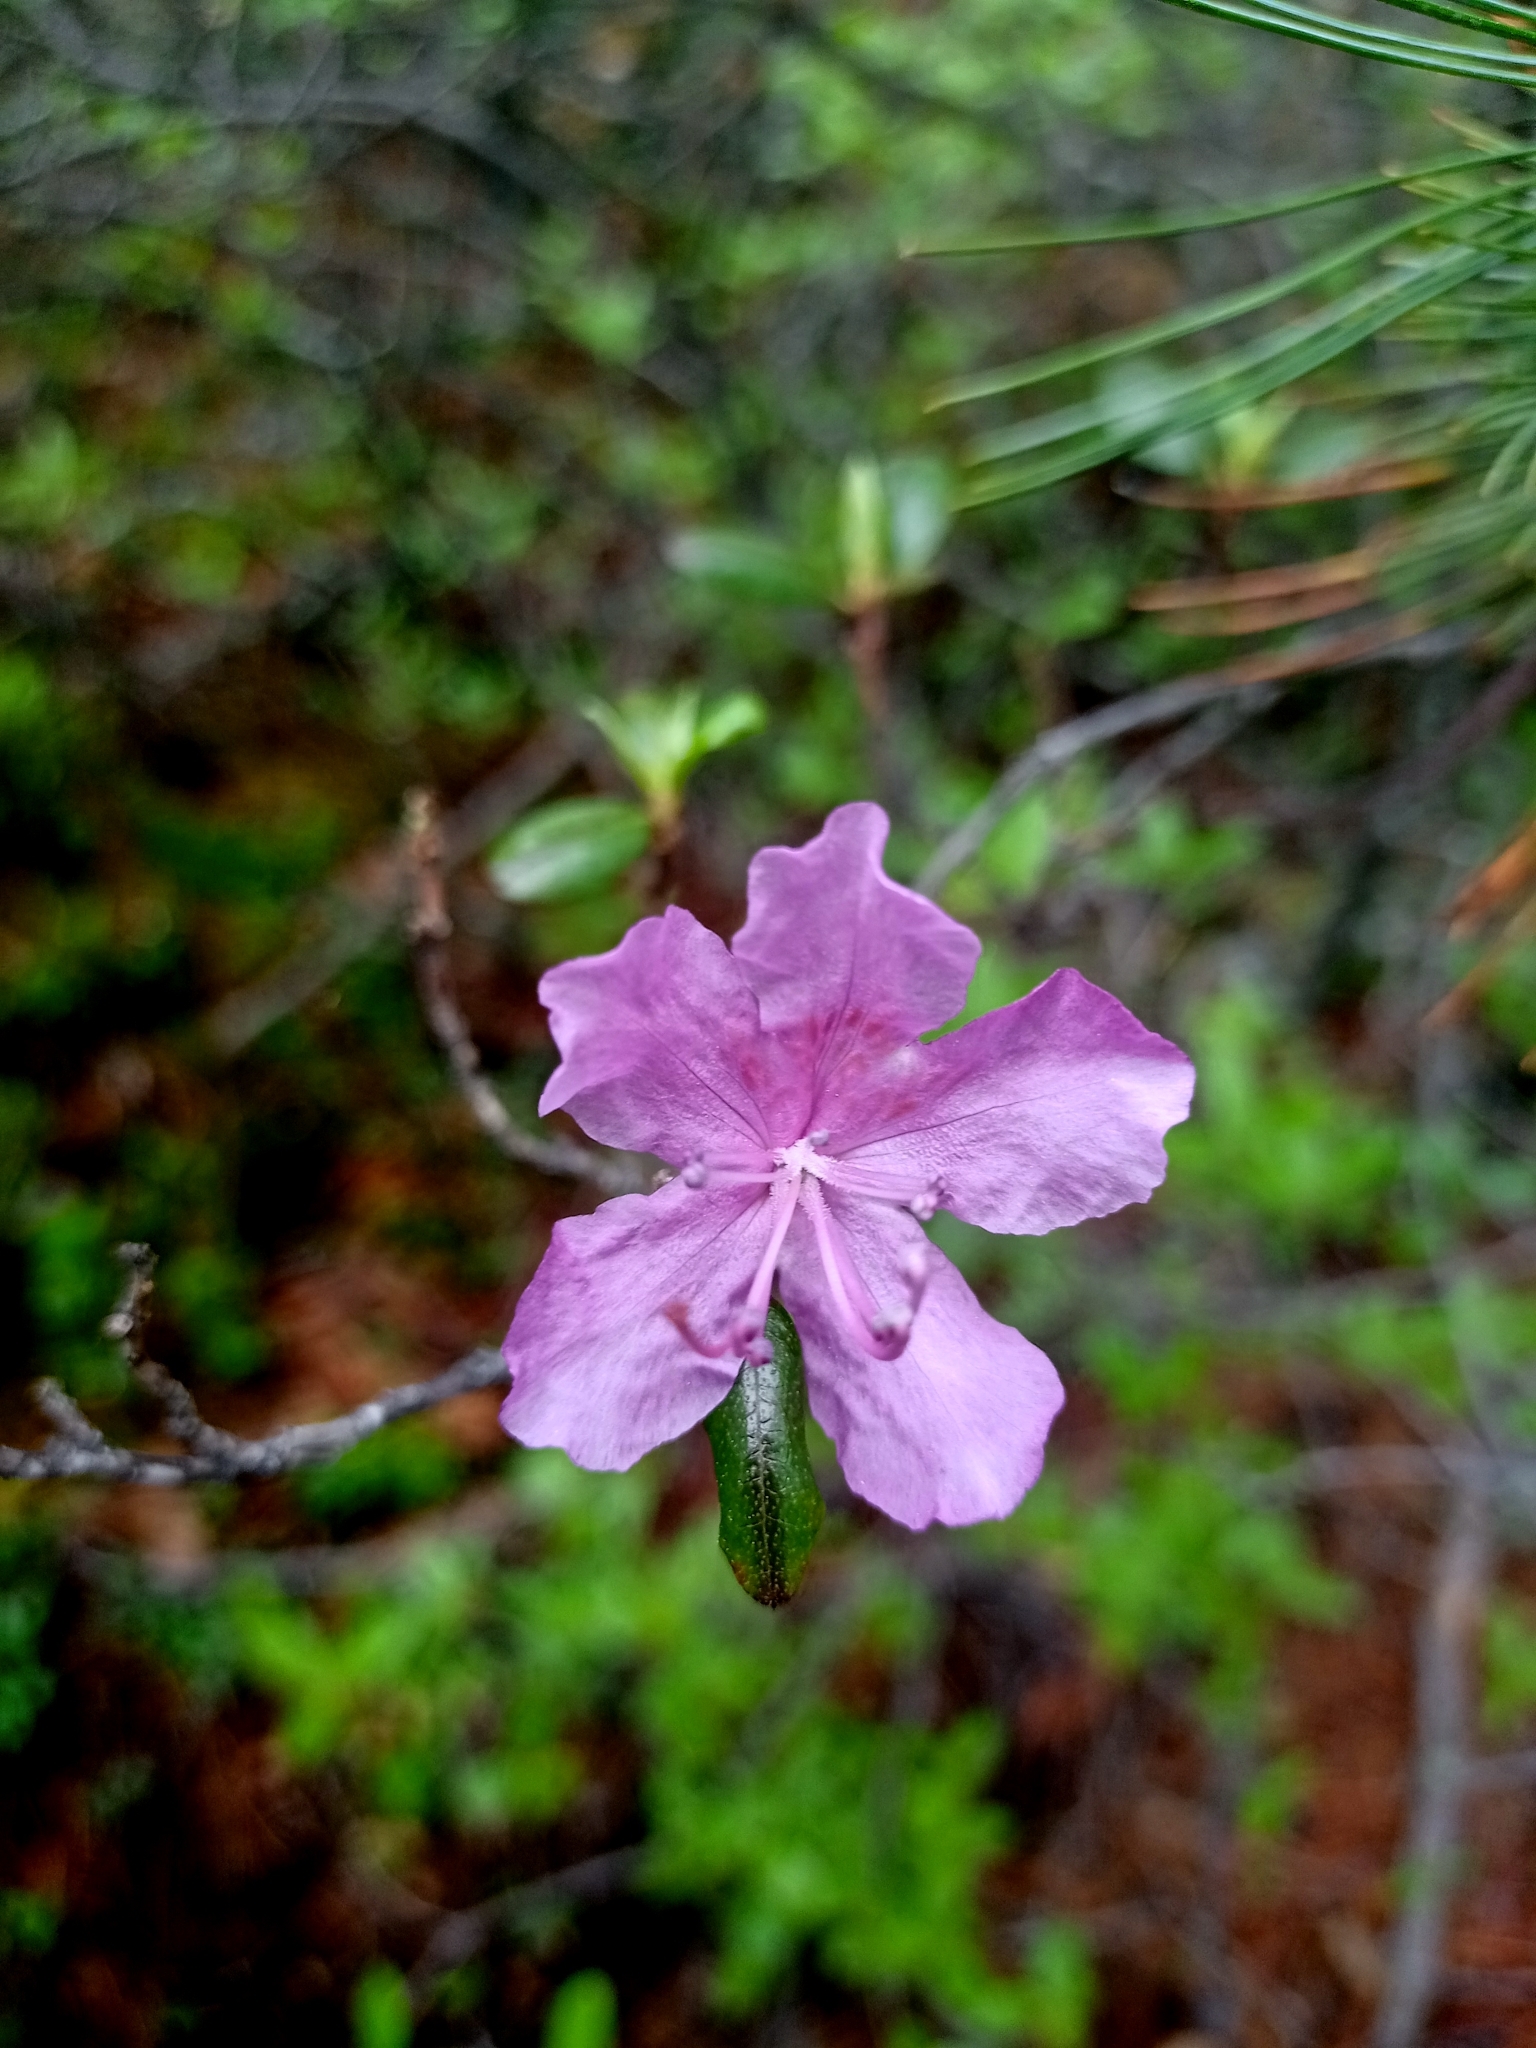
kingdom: Plantae
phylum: Tracheophyta
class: Magnoliopsida
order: Ericales
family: Ericaceae
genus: Rhododendron
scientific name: Rhododendron dauricum
